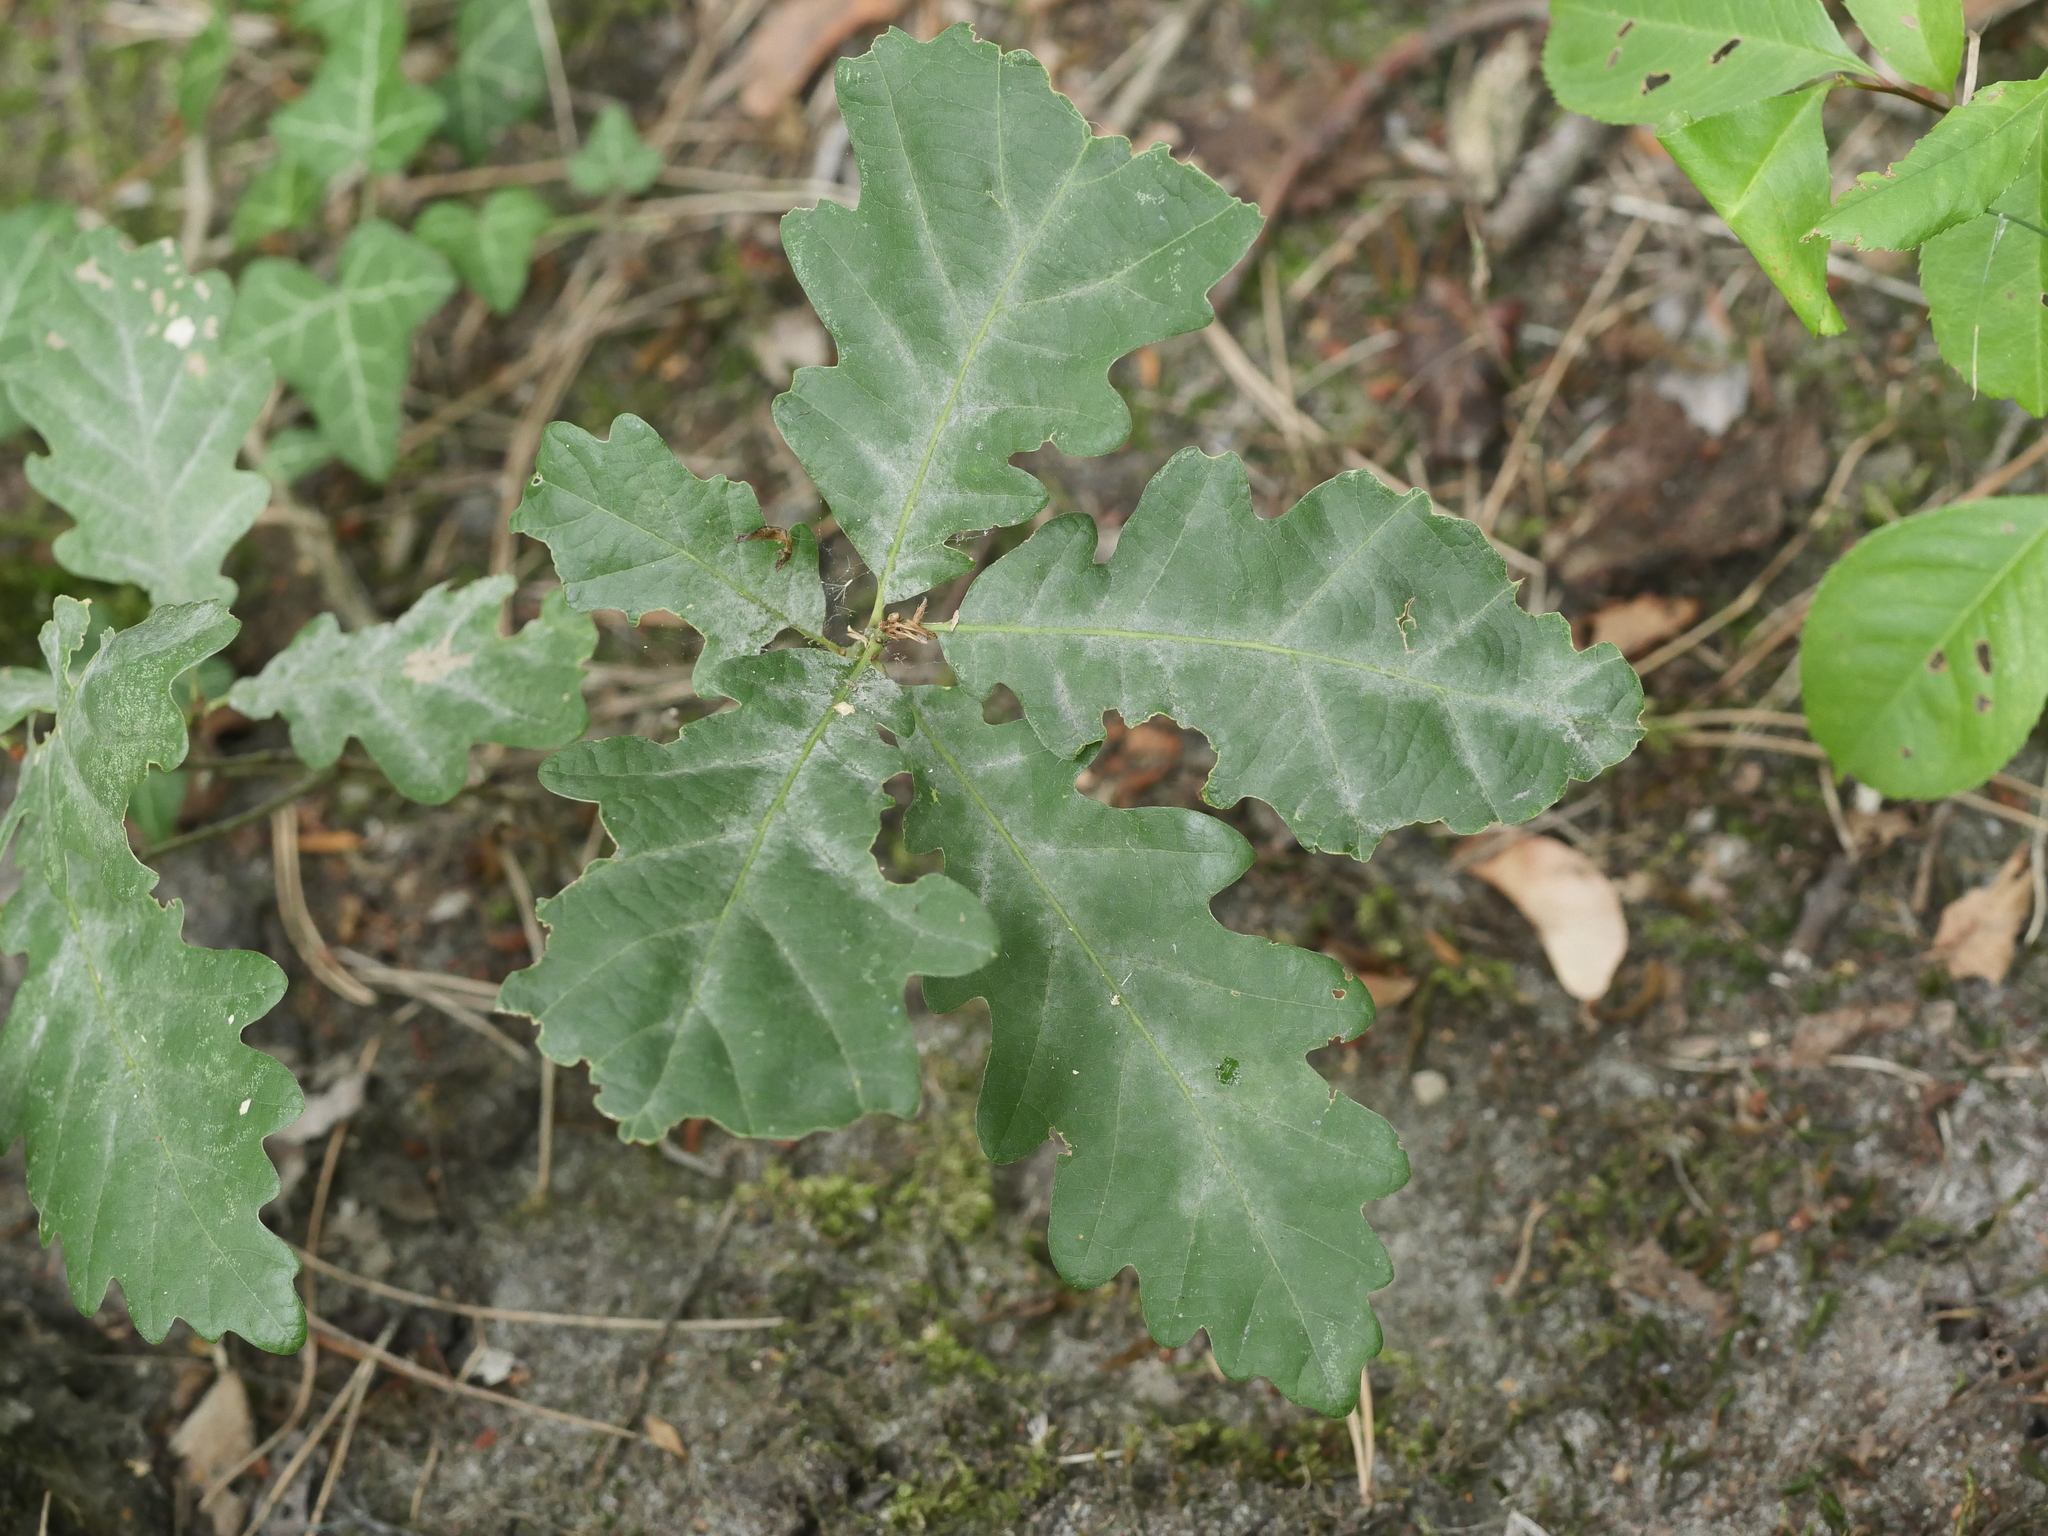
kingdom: Fungi
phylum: Ascomycota
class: Leotiomycetes
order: Helotiales
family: Erysiphaceae
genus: Erysiphe
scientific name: Erysiphe
